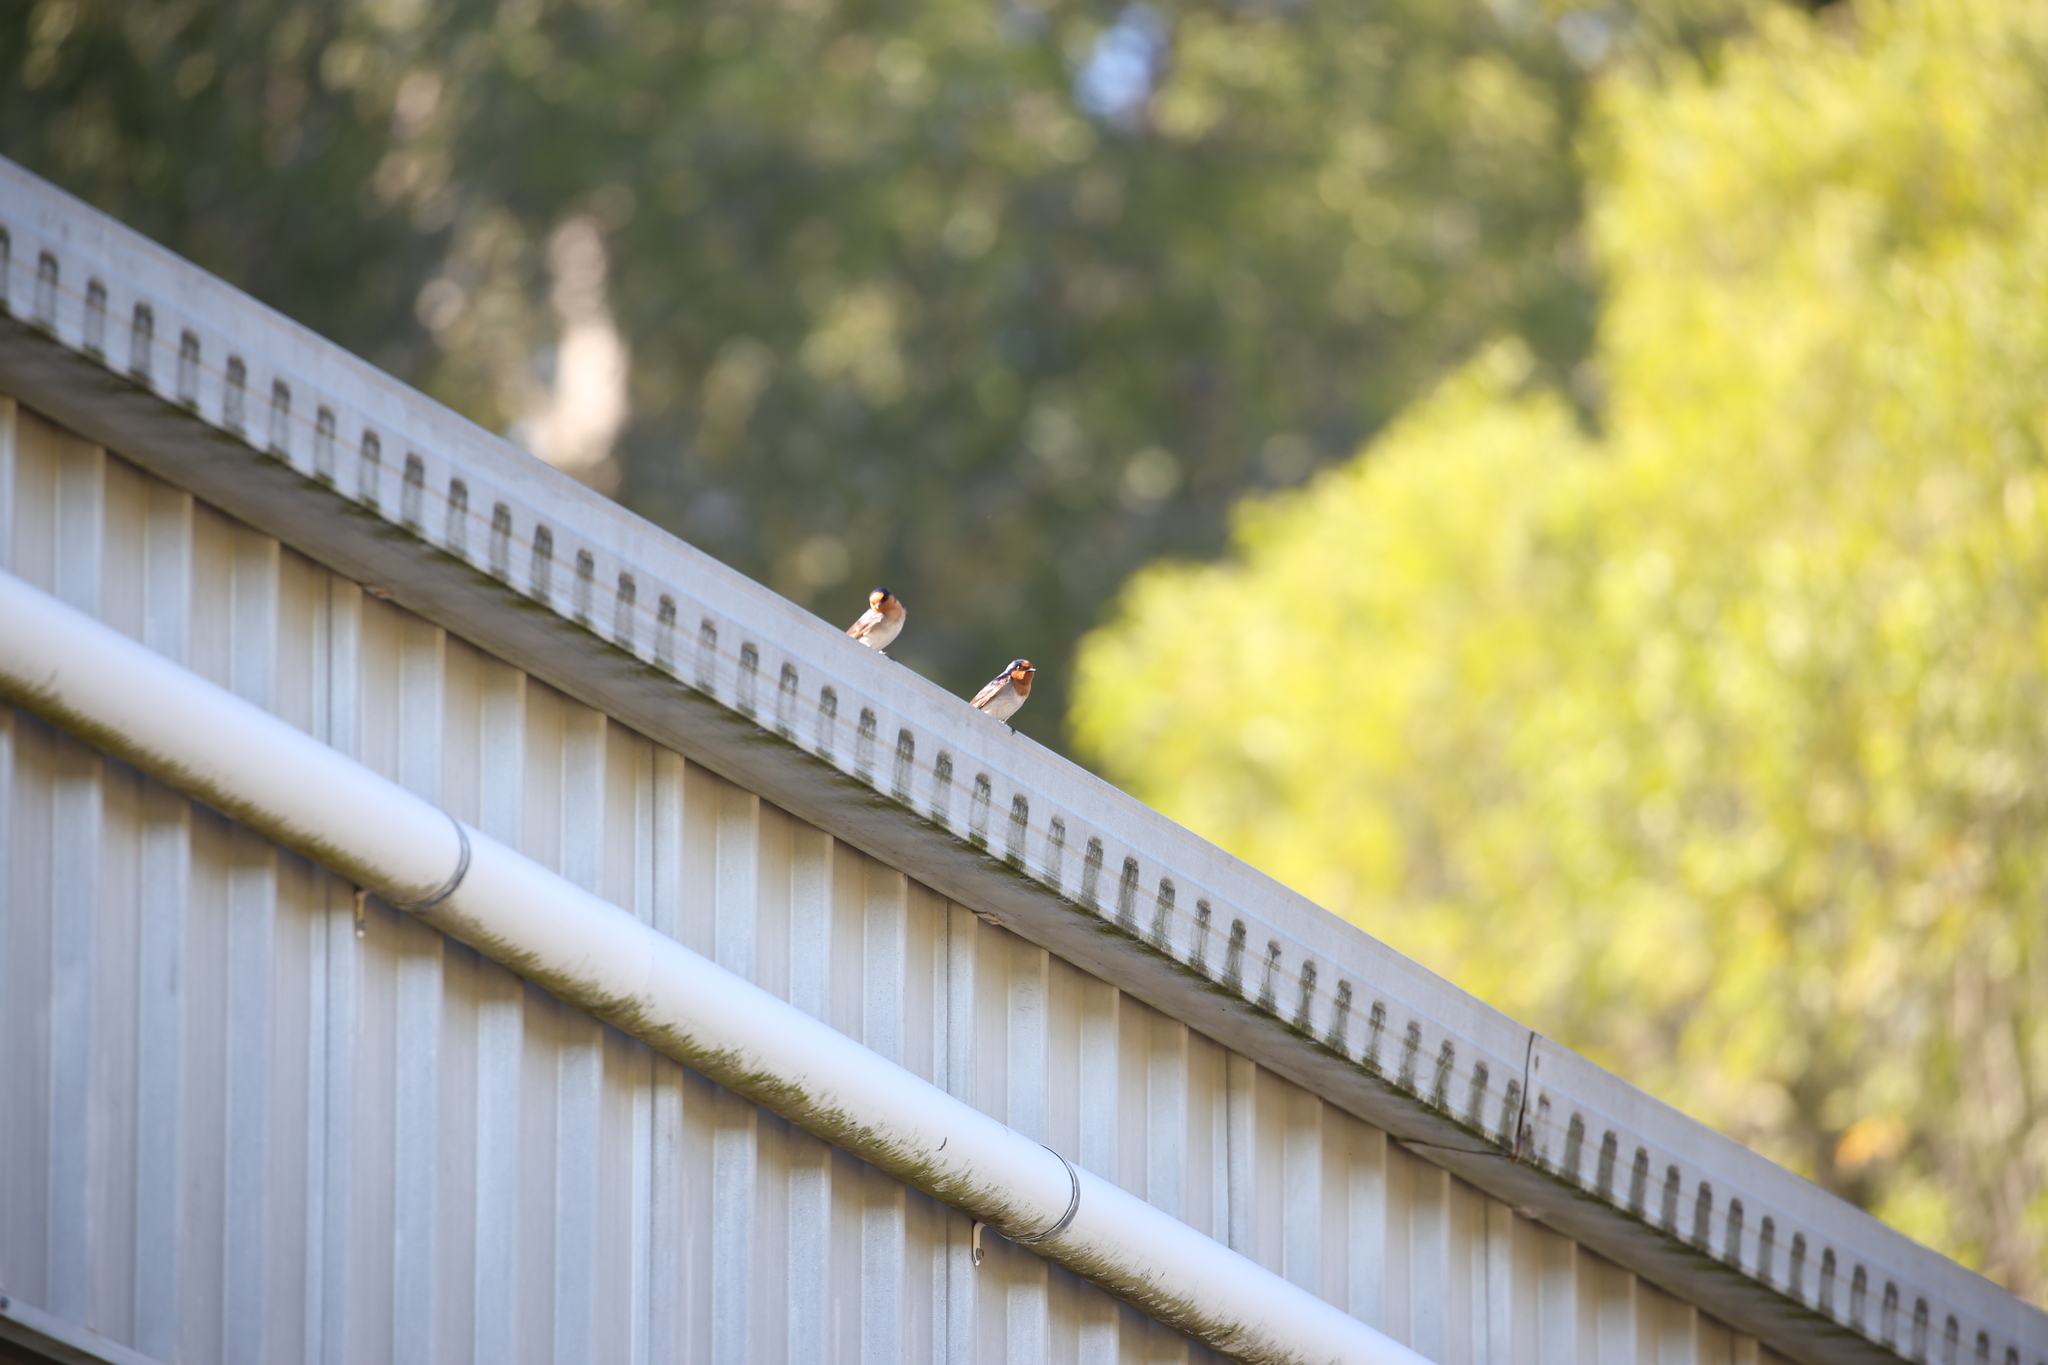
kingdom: Animalia
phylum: Chordata
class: Aves
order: Passeriformes
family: Hirundinidae
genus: Hirundo
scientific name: Hirundo neoxena
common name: Welcome swallow
